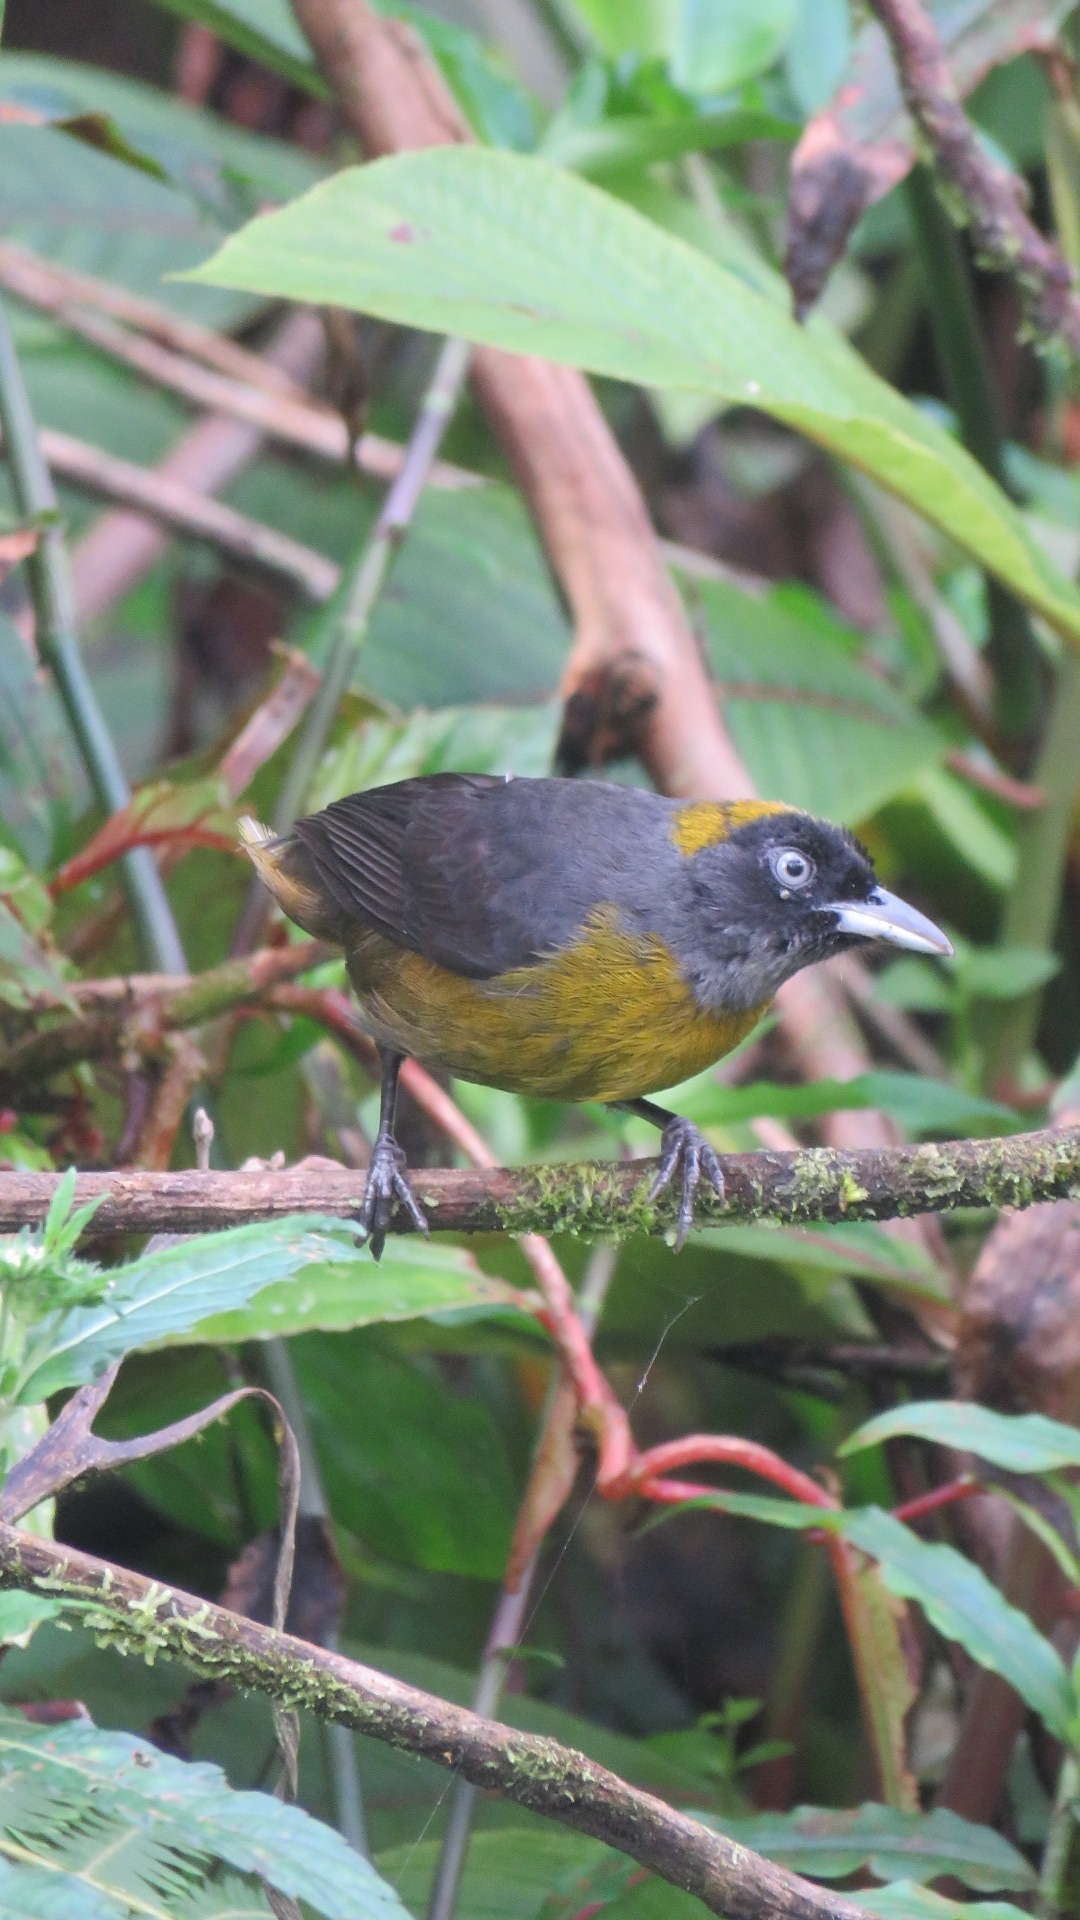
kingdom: Animalia
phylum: Chordata
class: Aves
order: Passeriformes
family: Mitrospingidae
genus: Mitrospingus
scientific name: Mitrospingus cassinii
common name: Dusky-faced tanager
